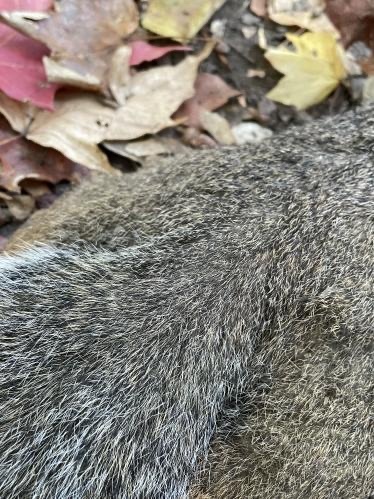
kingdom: Animalia
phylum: Chordata
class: Mammalia
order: Rodentia
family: Sciuridae
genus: Sciurus
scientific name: Sciurus carolinensis
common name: Eastern gray squirrel
